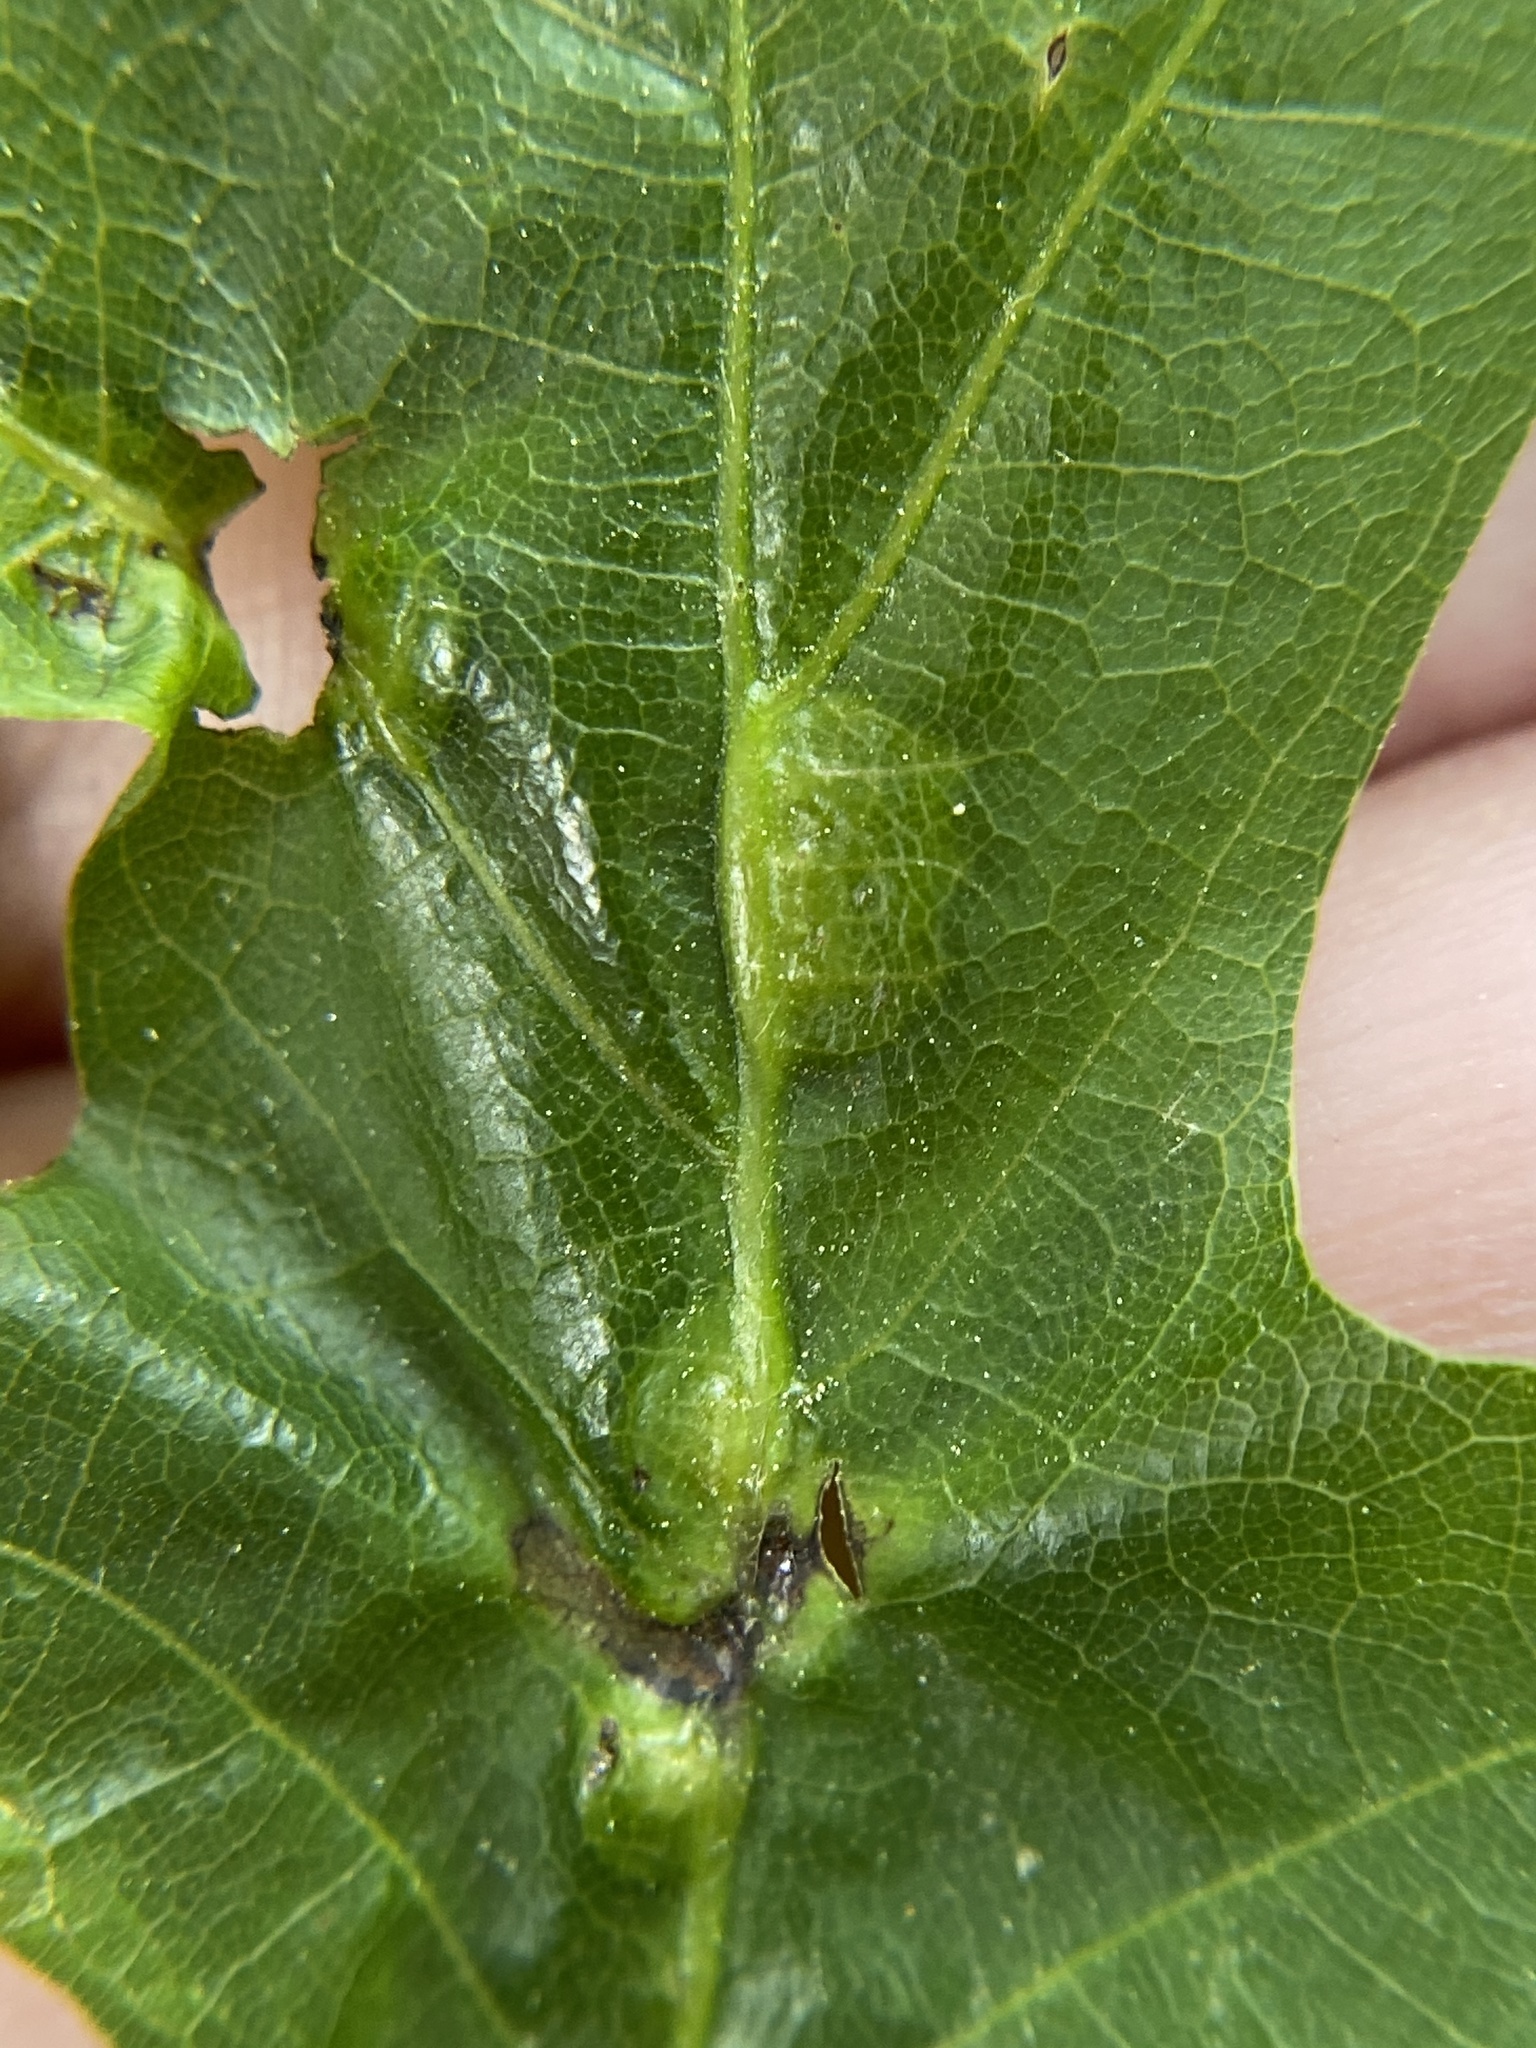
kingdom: Animalia
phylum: Arthropoda
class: Insecta
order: Diptera
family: Cecidomyiidae
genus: Polystepha
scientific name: Polystepha pilulae
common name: Oak leaf gall midge
